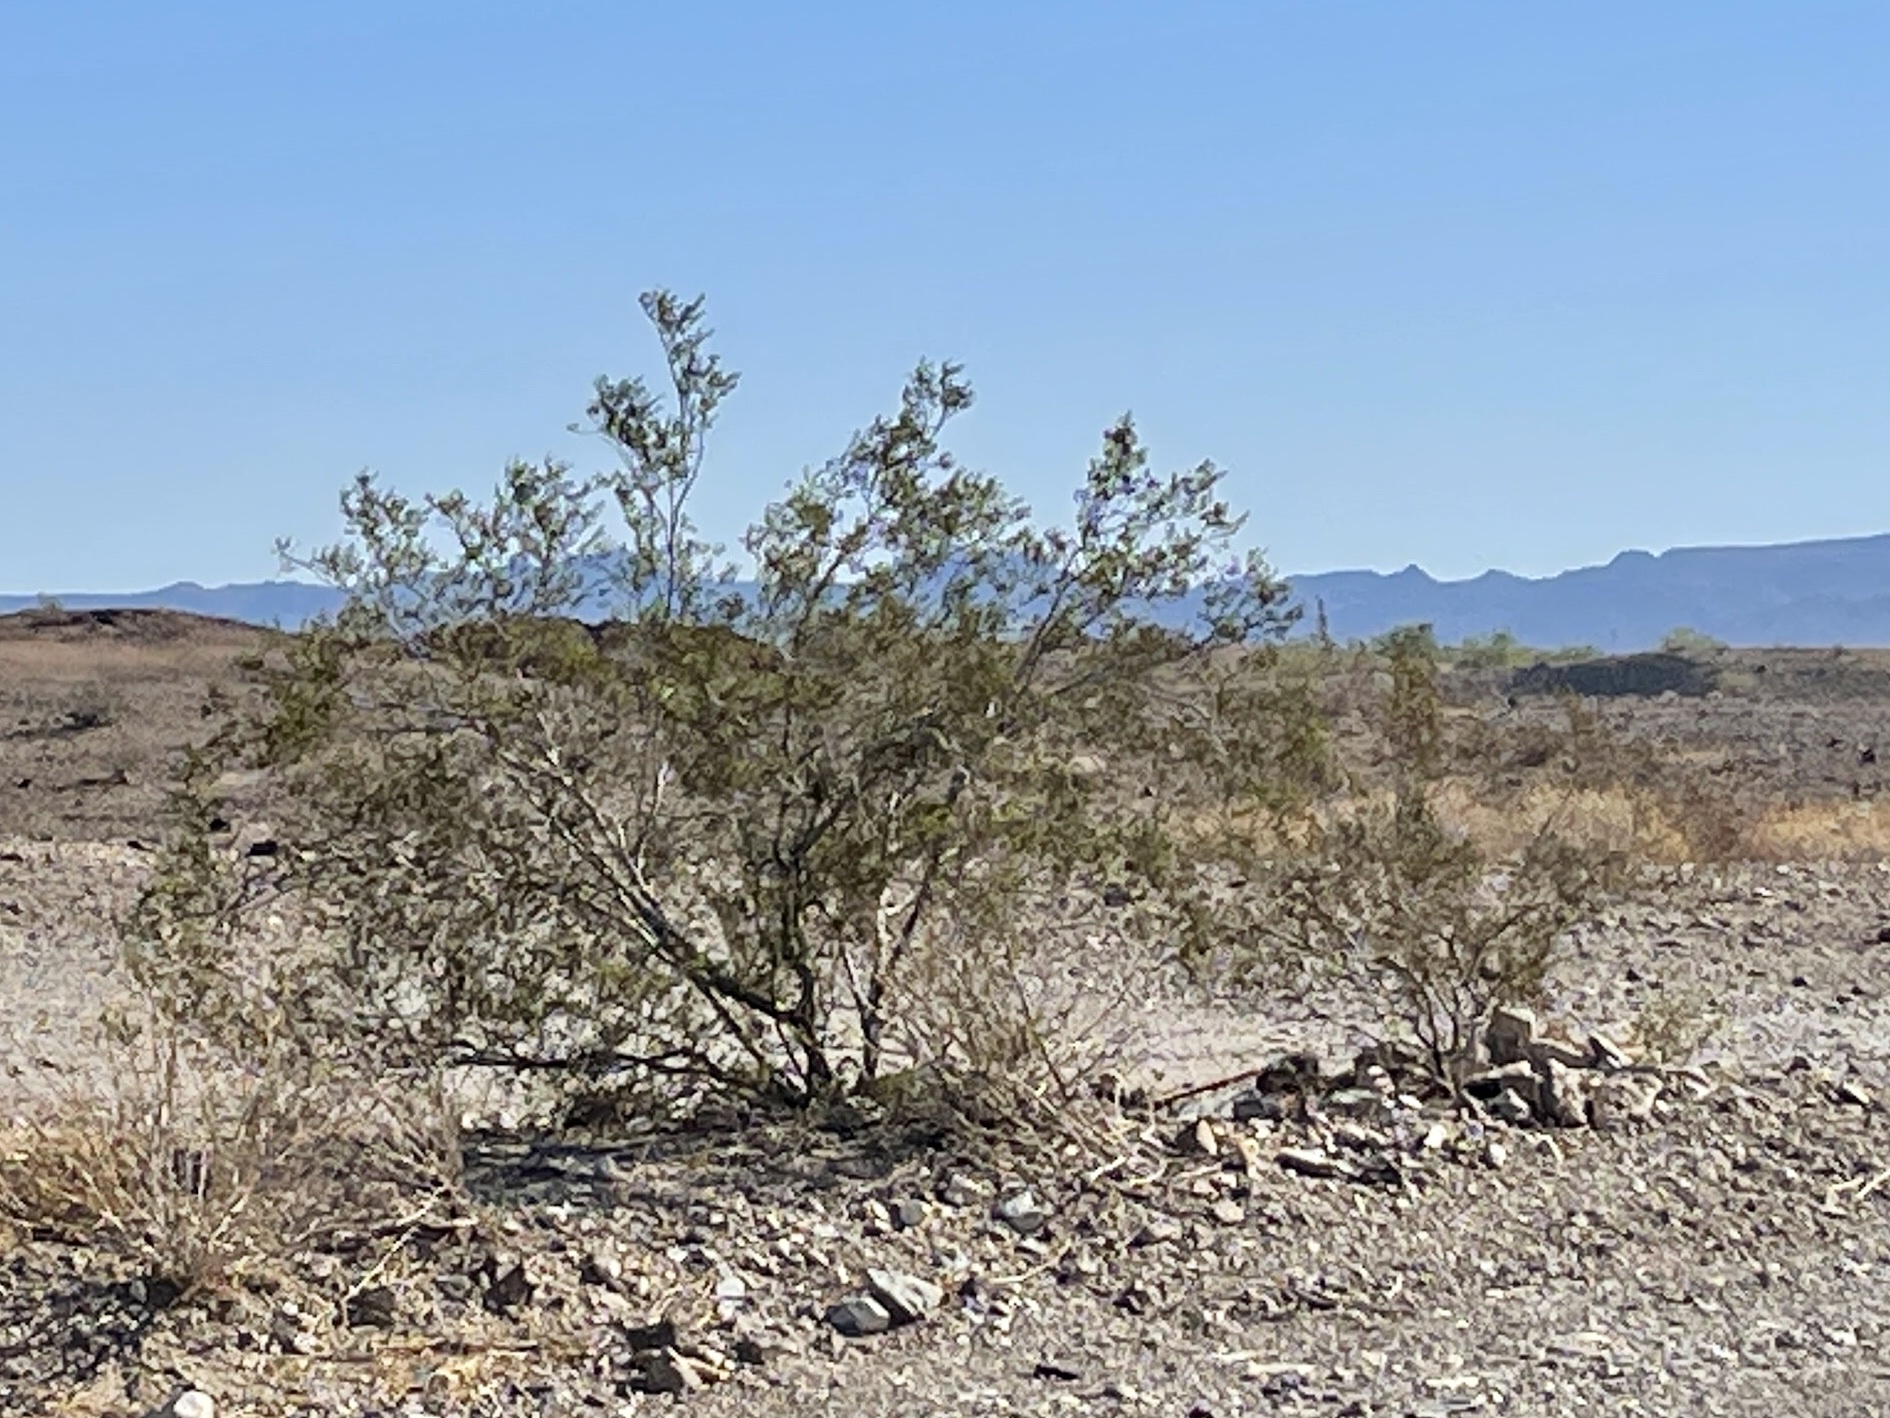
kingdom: Plantae
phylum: Tracheophyta
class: Magnoliopsida
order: Zygophyllales
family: Zygophyllaceae
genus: Larrea
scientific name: Larrea tridentata
